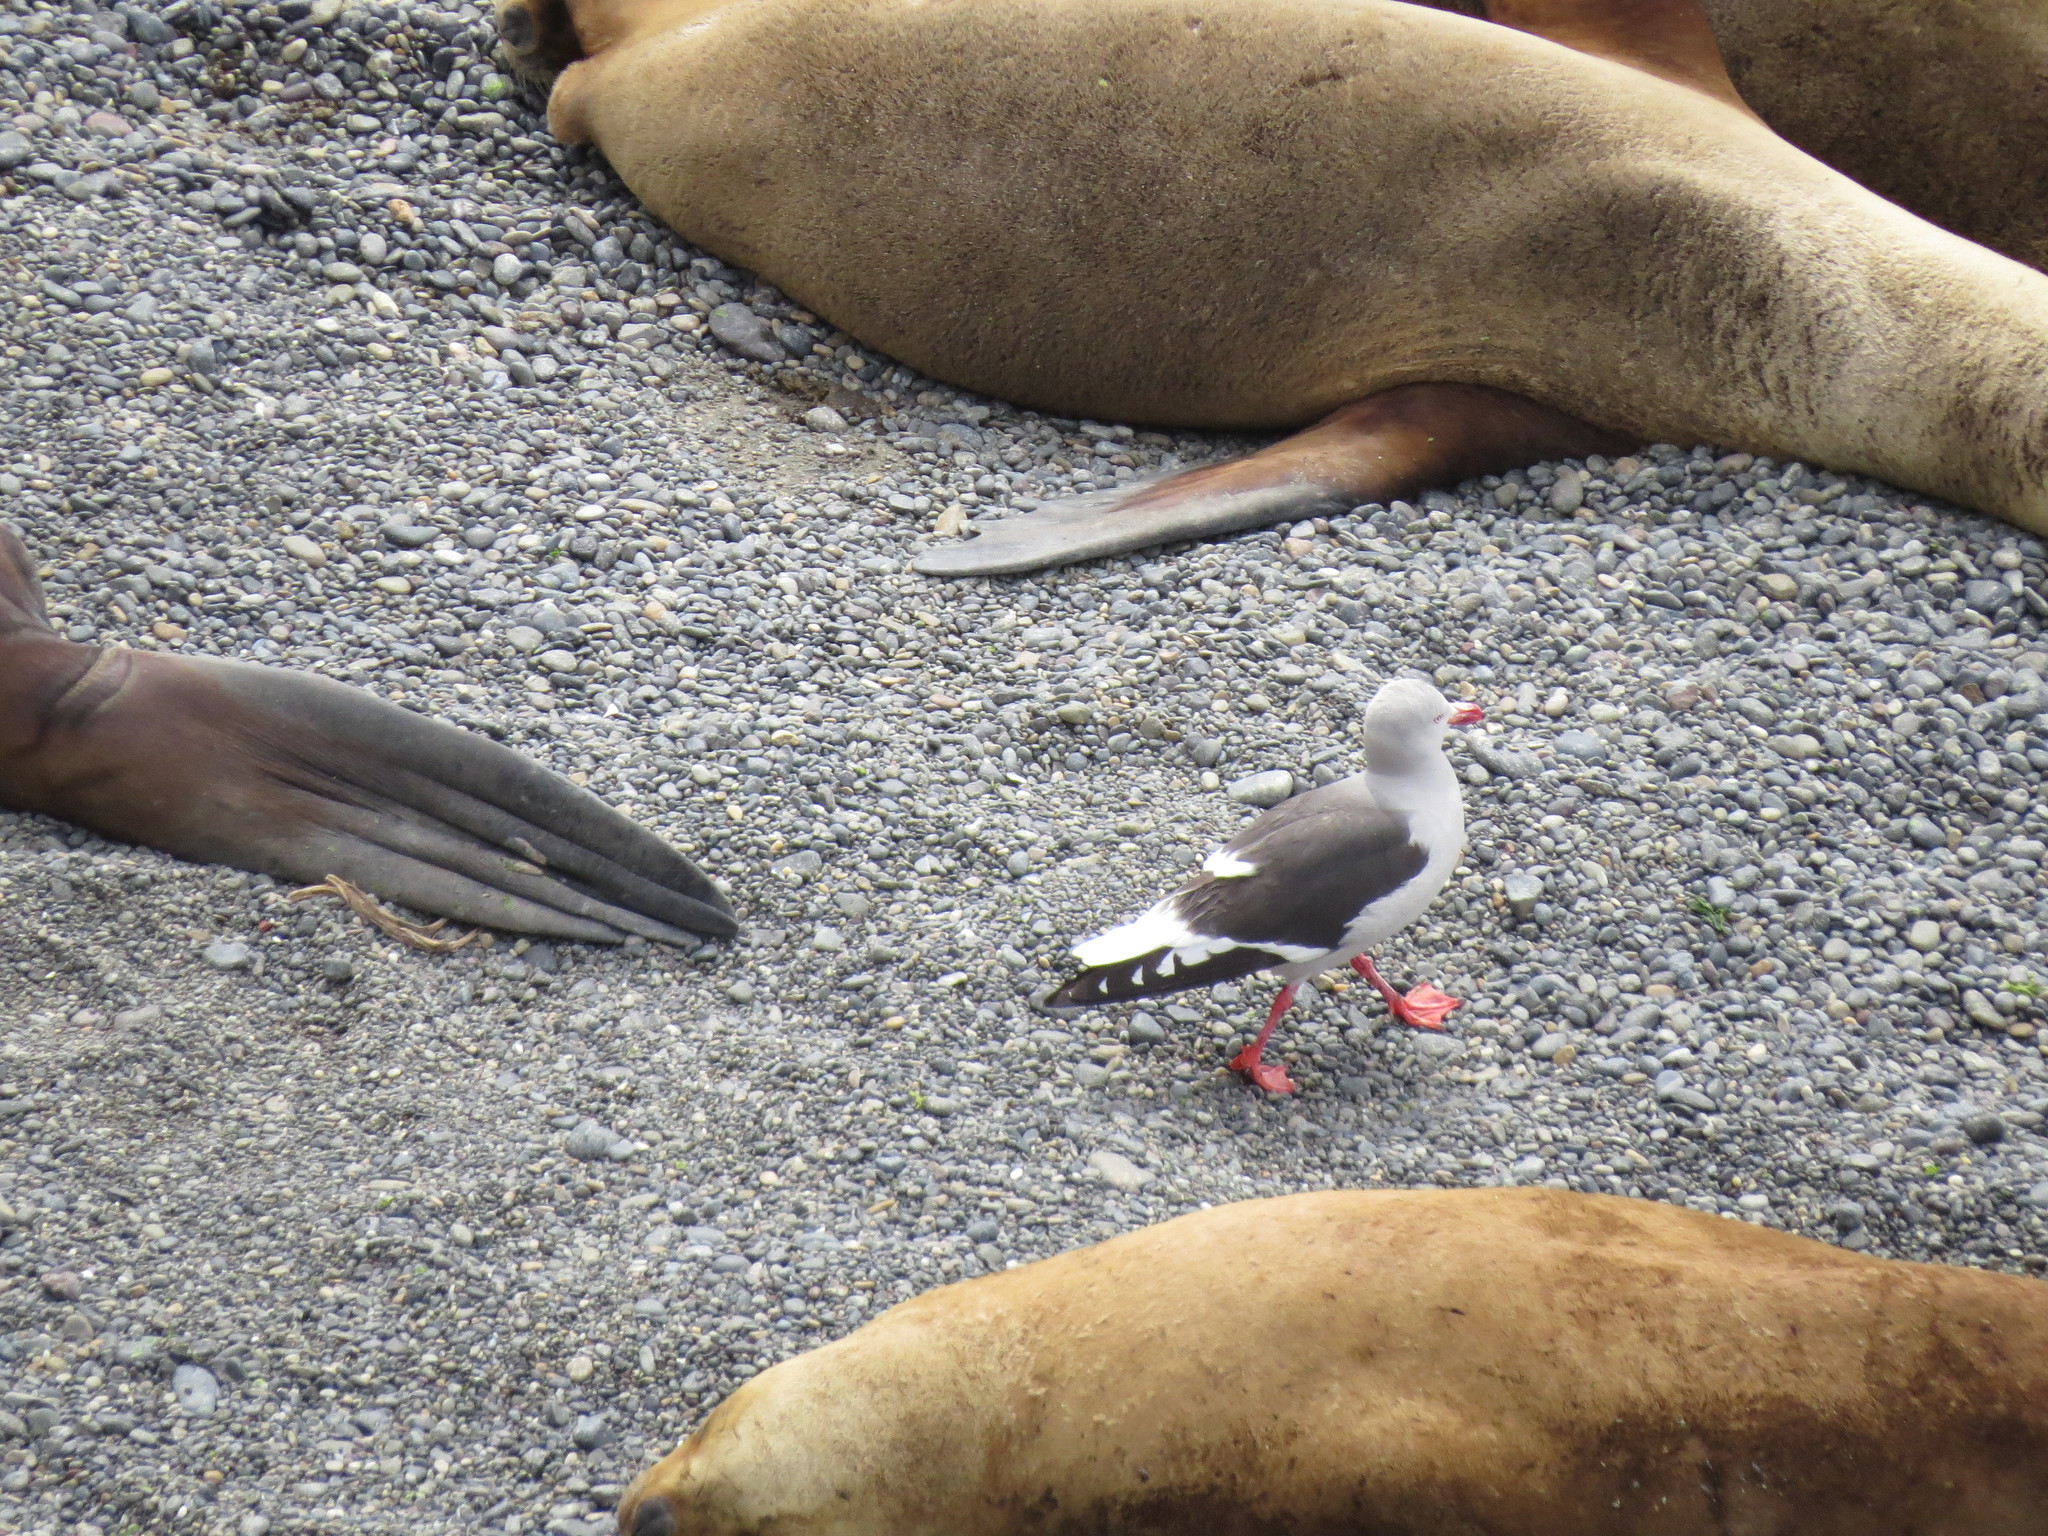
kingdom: Animalia
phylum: Chordata
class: Aves
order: Charadriiformes
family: Laridae
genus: Leucophaeus
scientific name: Leucophaeus scoresbii
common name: Dolphin gull
